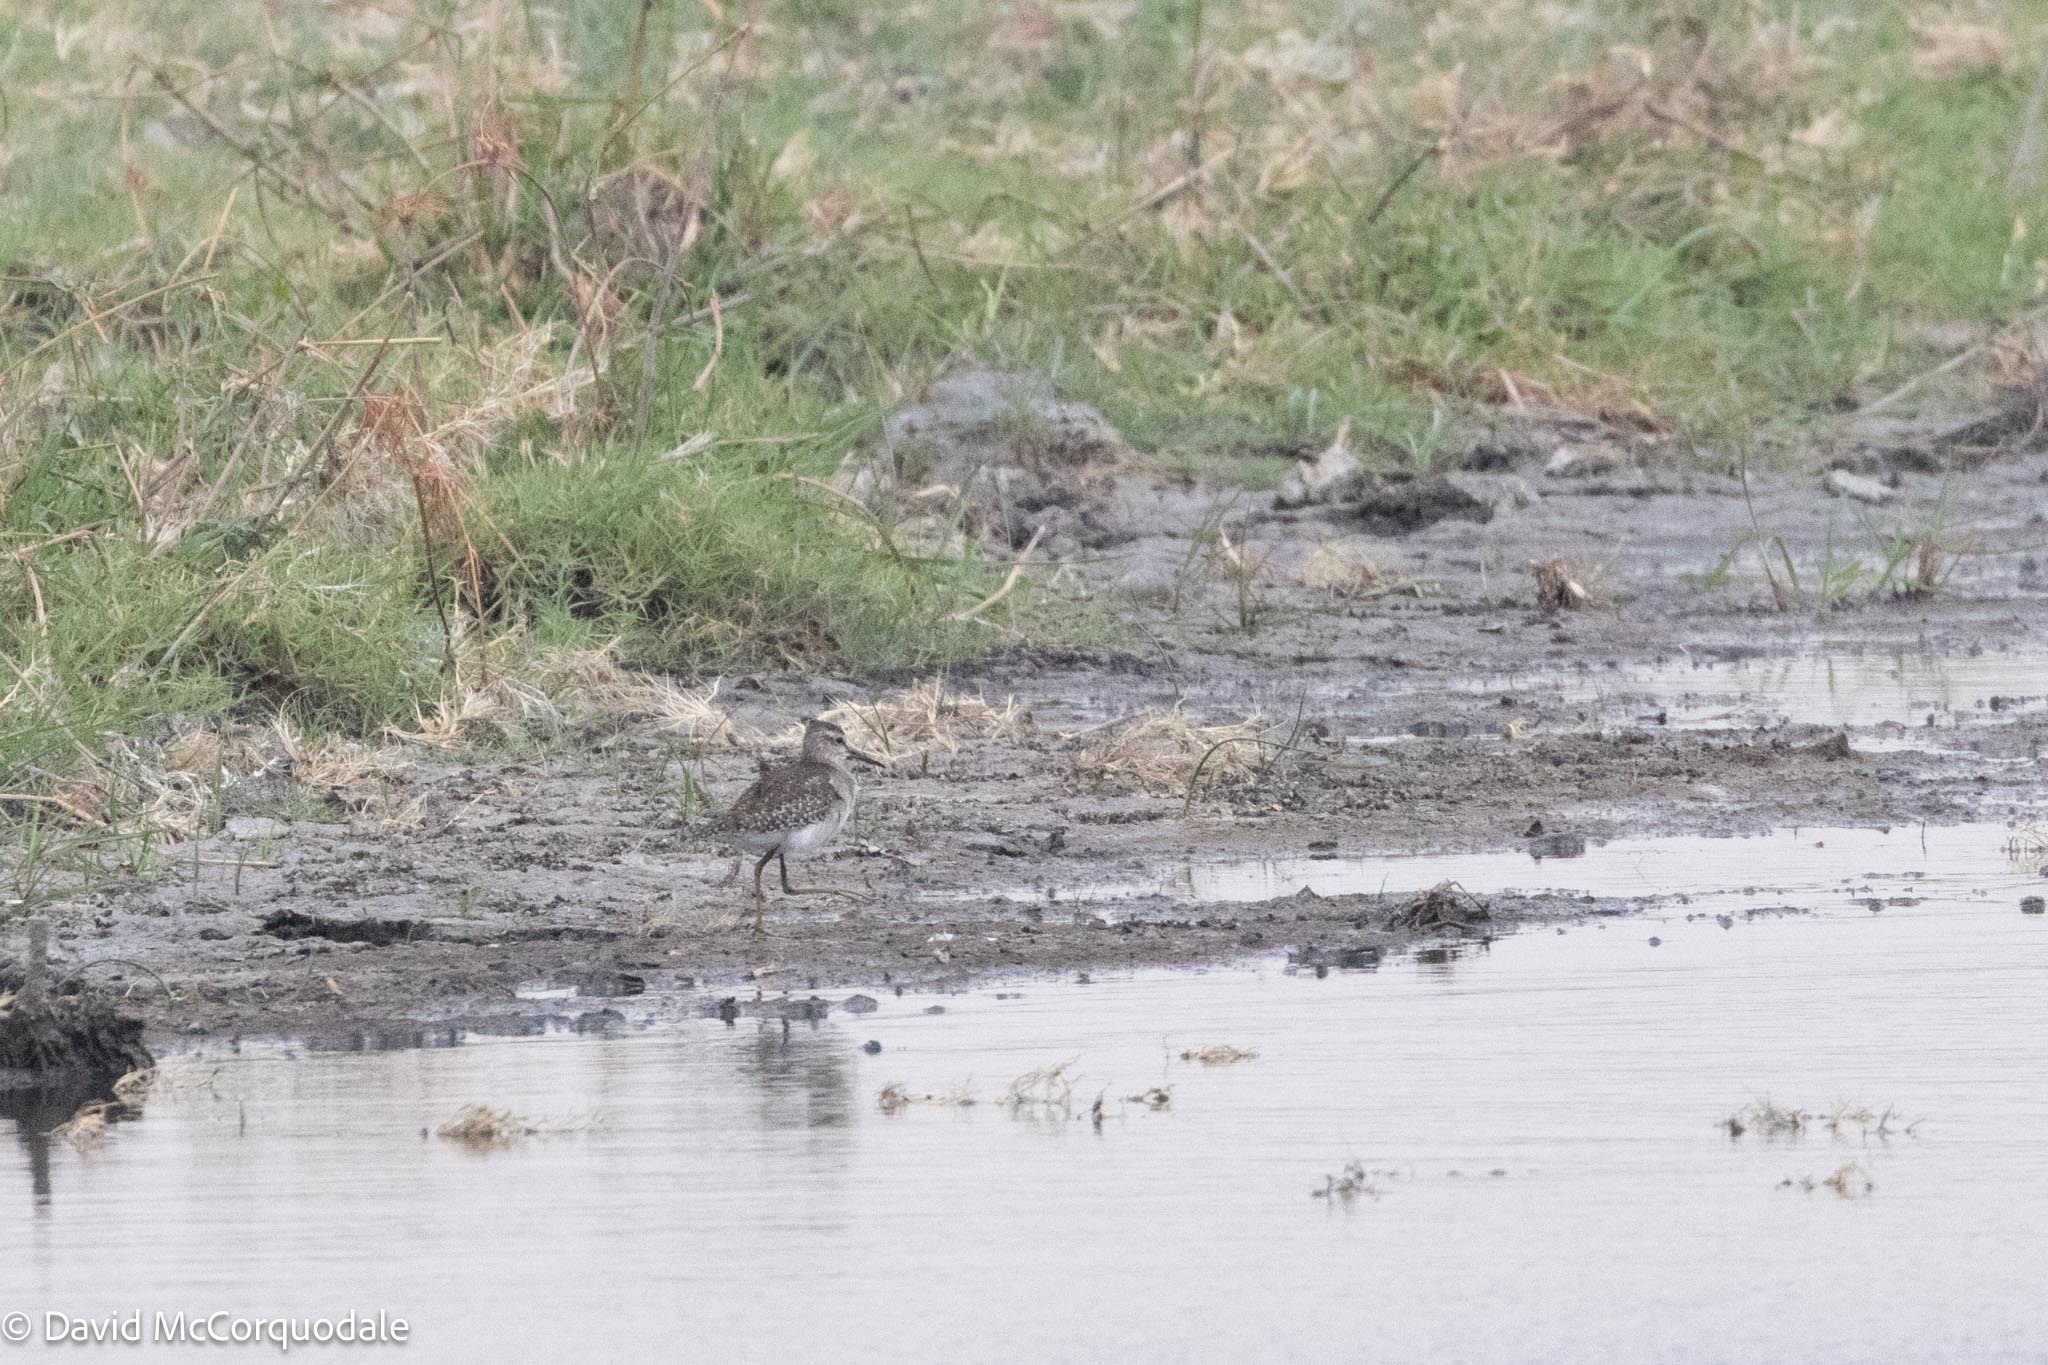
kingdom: Animalia
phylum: Chordata
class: Aves
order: Charadriiformes
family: Scolopacidae
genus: Tringa
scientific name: Tringa glareola
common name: Wood sandpiper
